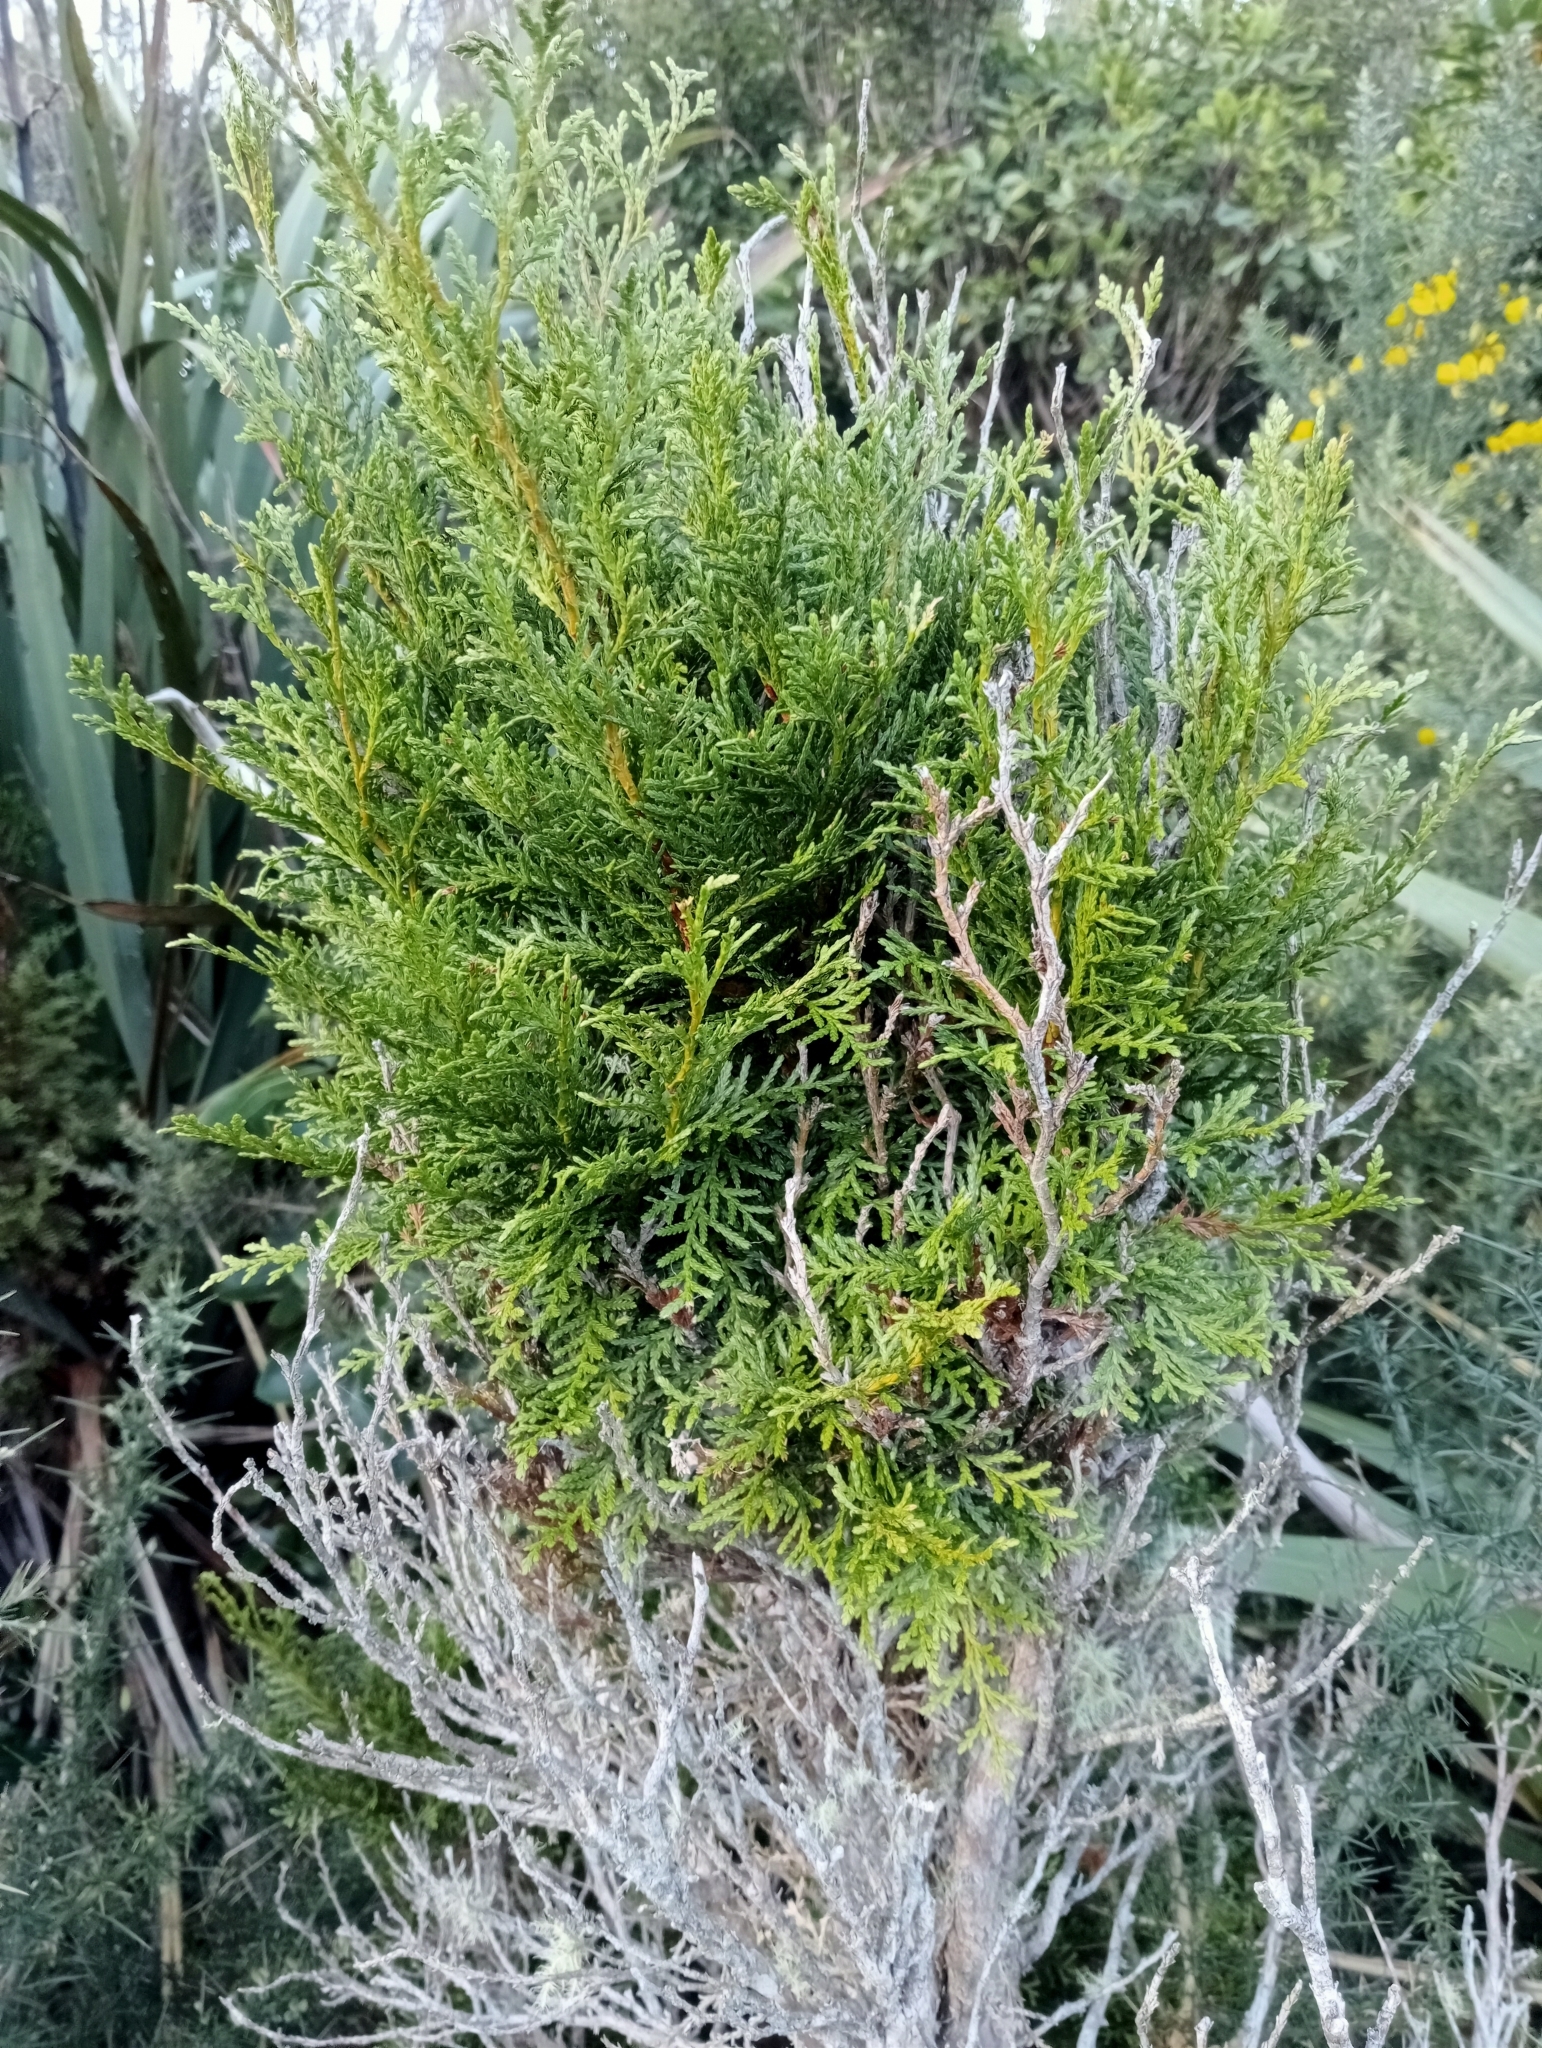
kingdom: Plantae
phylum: Tracheophyta
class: Pinopsida
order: Pinales
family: Cupressaceae
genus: Libocedrus
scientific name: Libocedrus bidwillii
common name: Cedar
